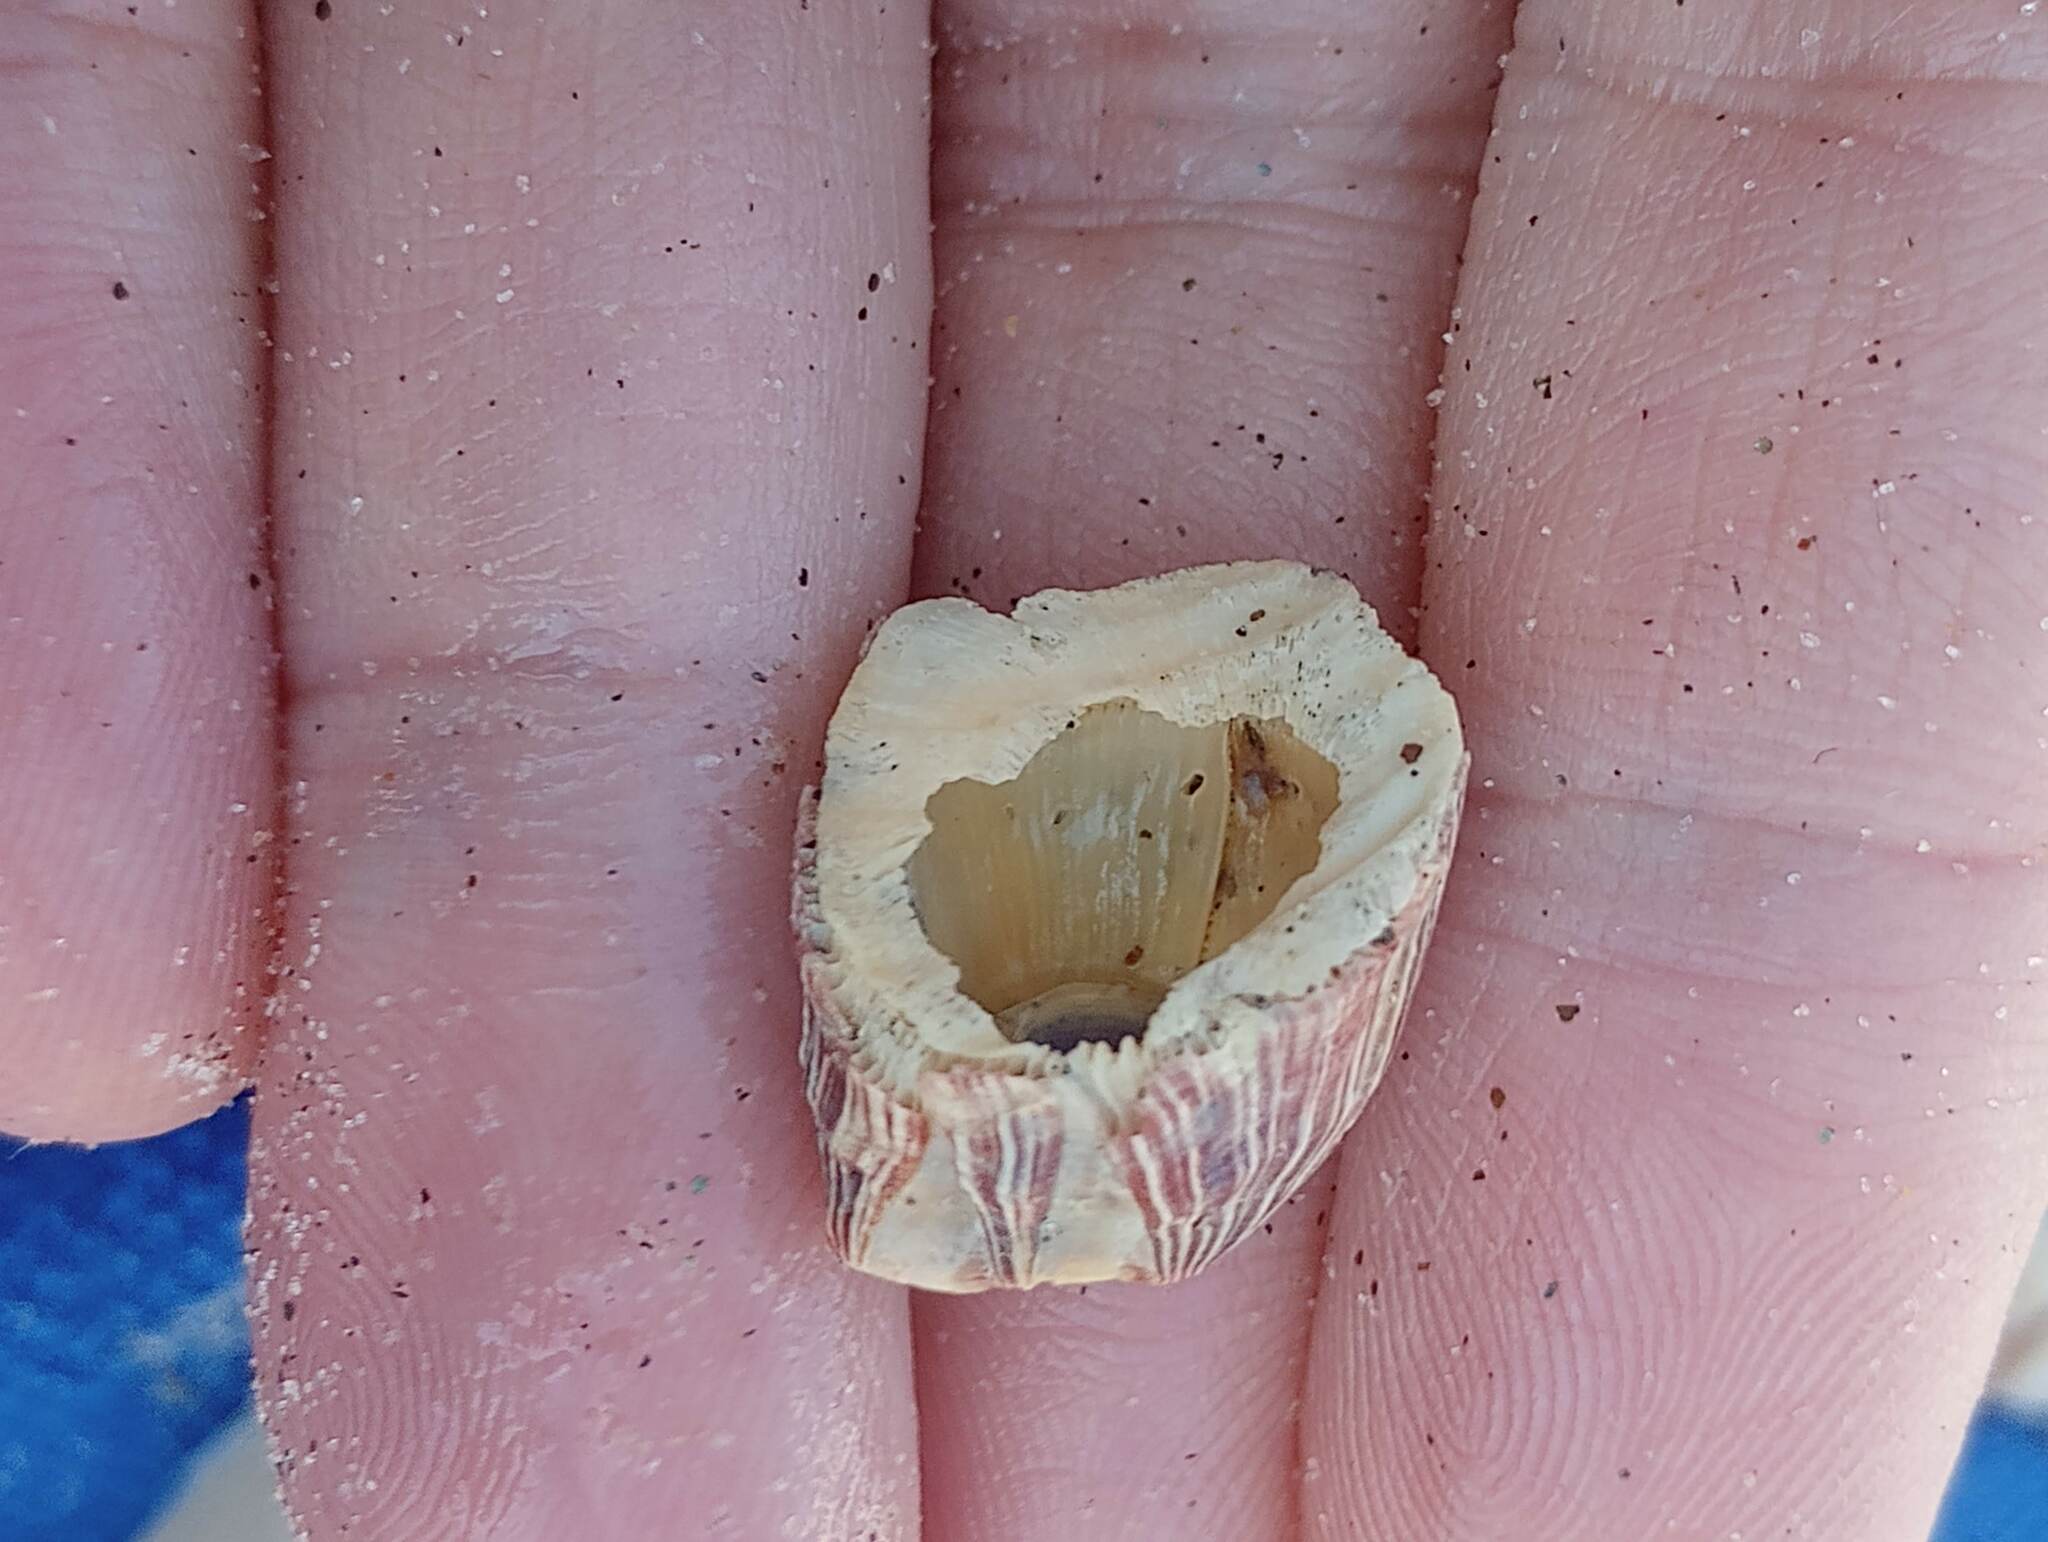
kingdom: Animalia
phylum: Arthropoda
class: Maxillopoda
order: Sessilia
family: Balanidae
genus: Megabalanus
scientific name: Megabalanus californicus
